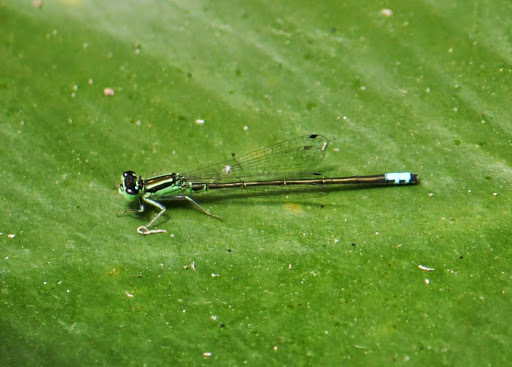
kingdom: Animalia
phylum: Arthropoda
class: Insecta
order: Odonata
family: Coenagrionidae
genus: Ischnura
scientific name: Ischnura verticalis
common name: Eastern forktail
